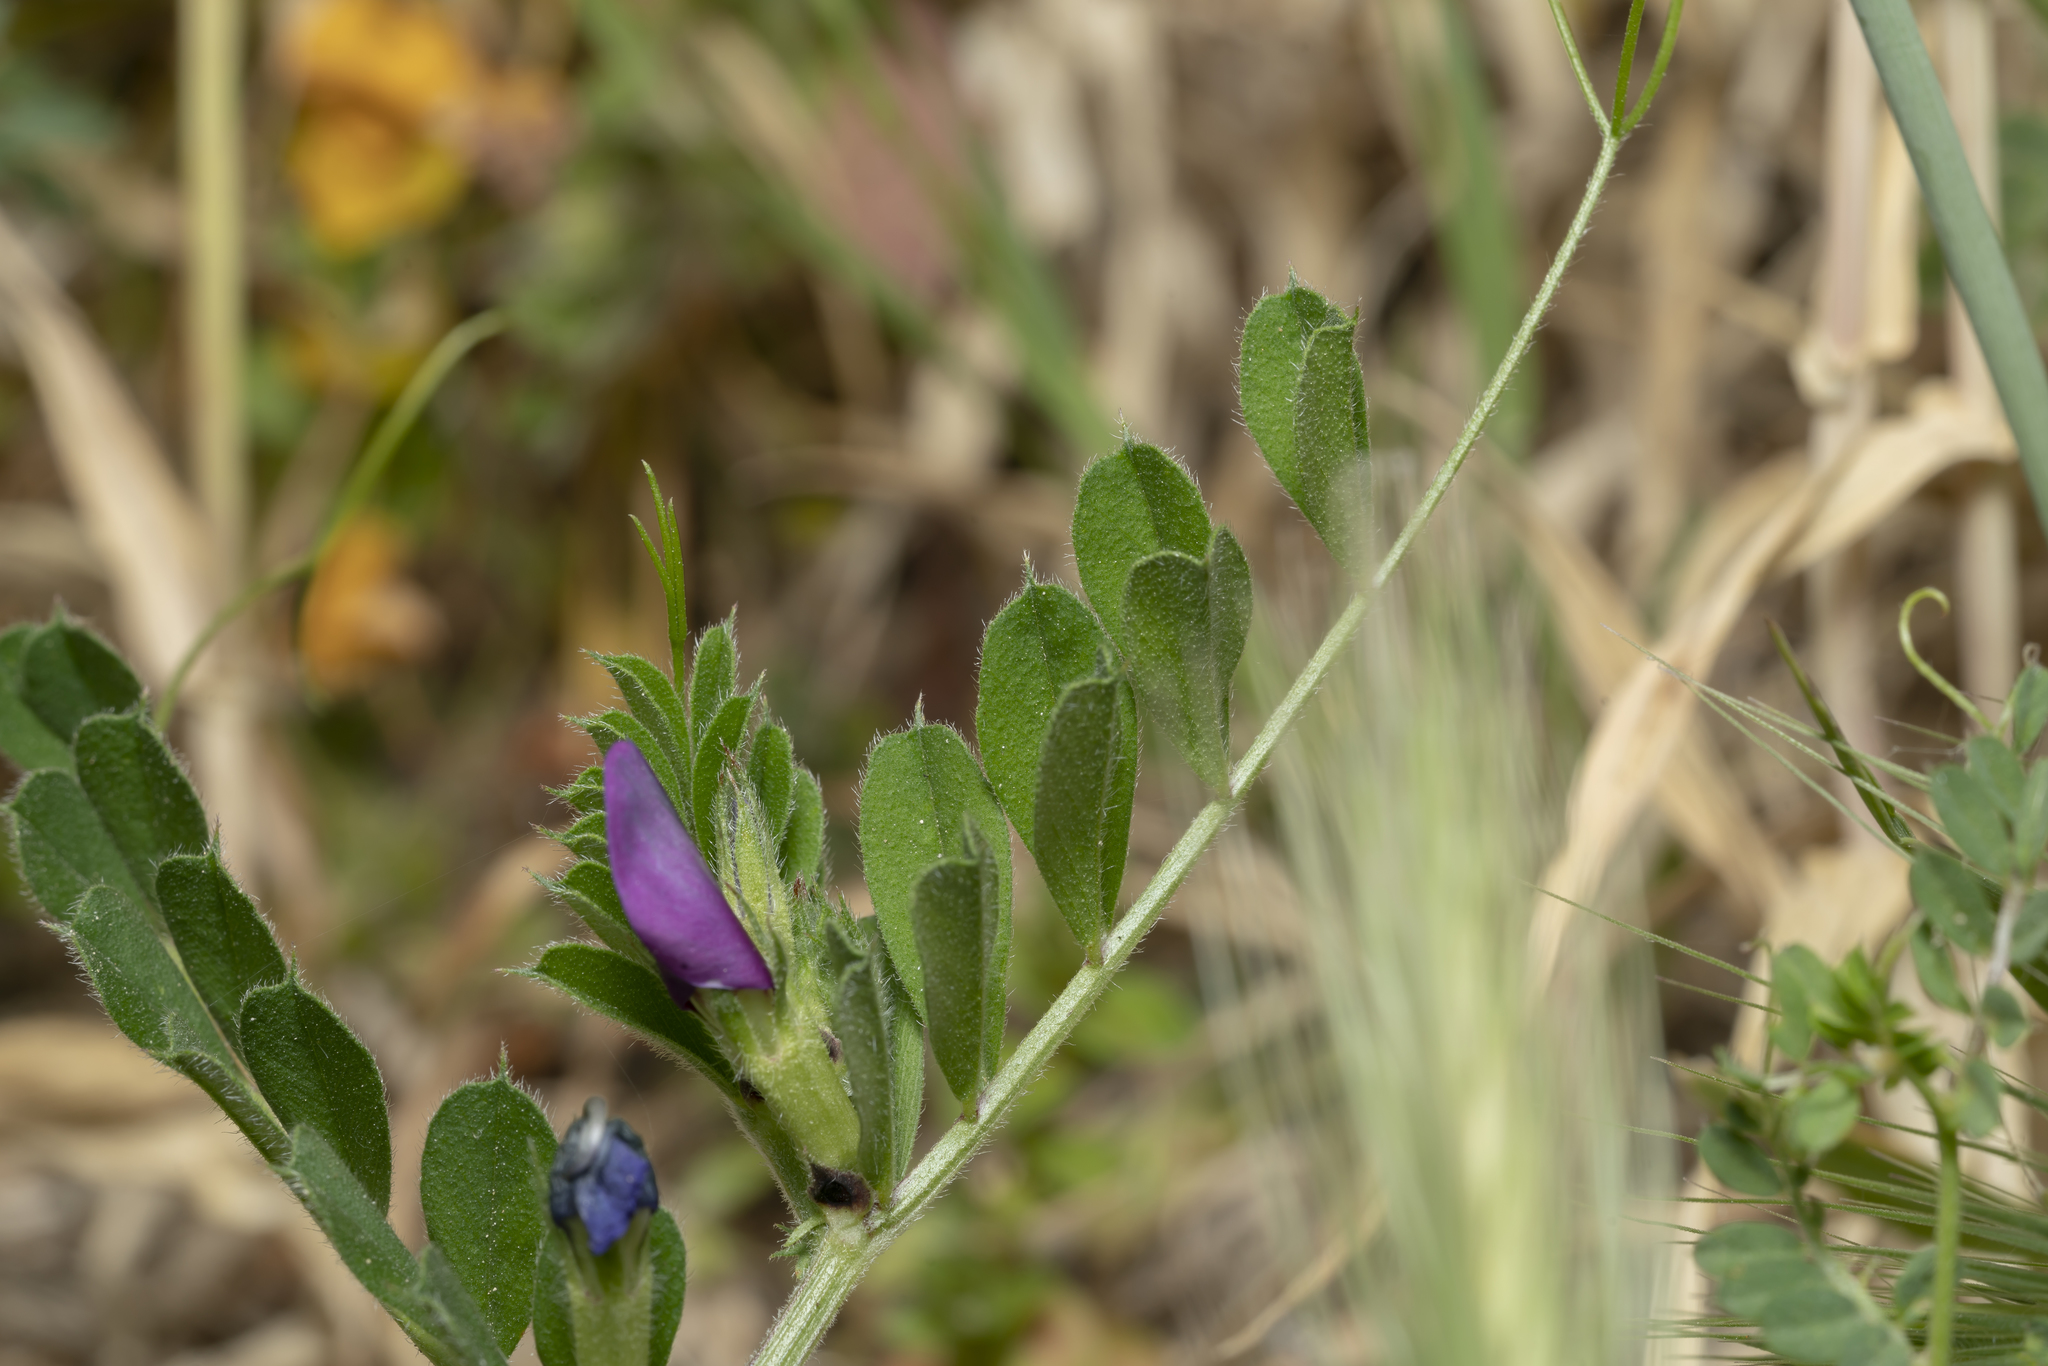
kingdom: Plantae
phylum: Tracheophyta
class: Magnoliopsida
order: Fabales
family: Fabaceae
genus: Vicia
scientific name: Vicia sativa
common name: Garden vetch
